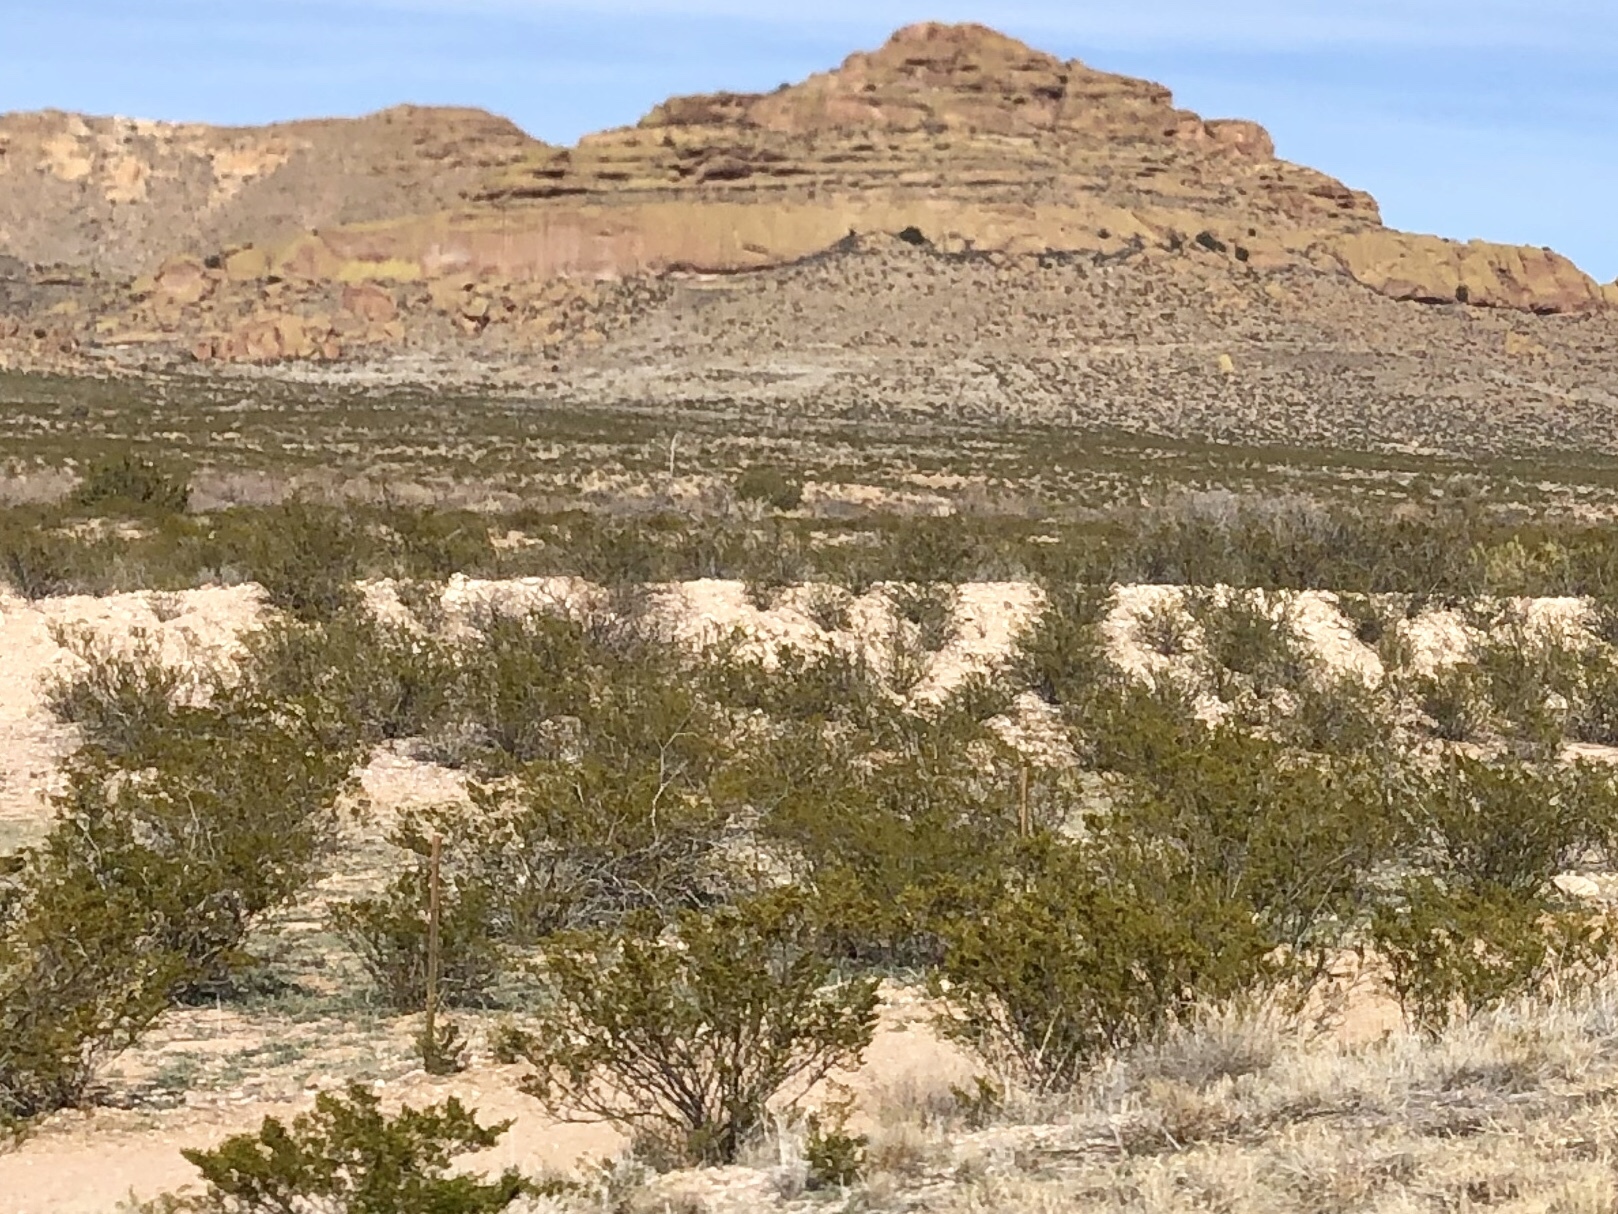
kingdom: Plantae
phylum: Tracheophyta
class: Magnoliopsida
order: Zygophyllales
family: Zygophyllaceae
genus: Larrea
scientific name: Larrea tridentata
